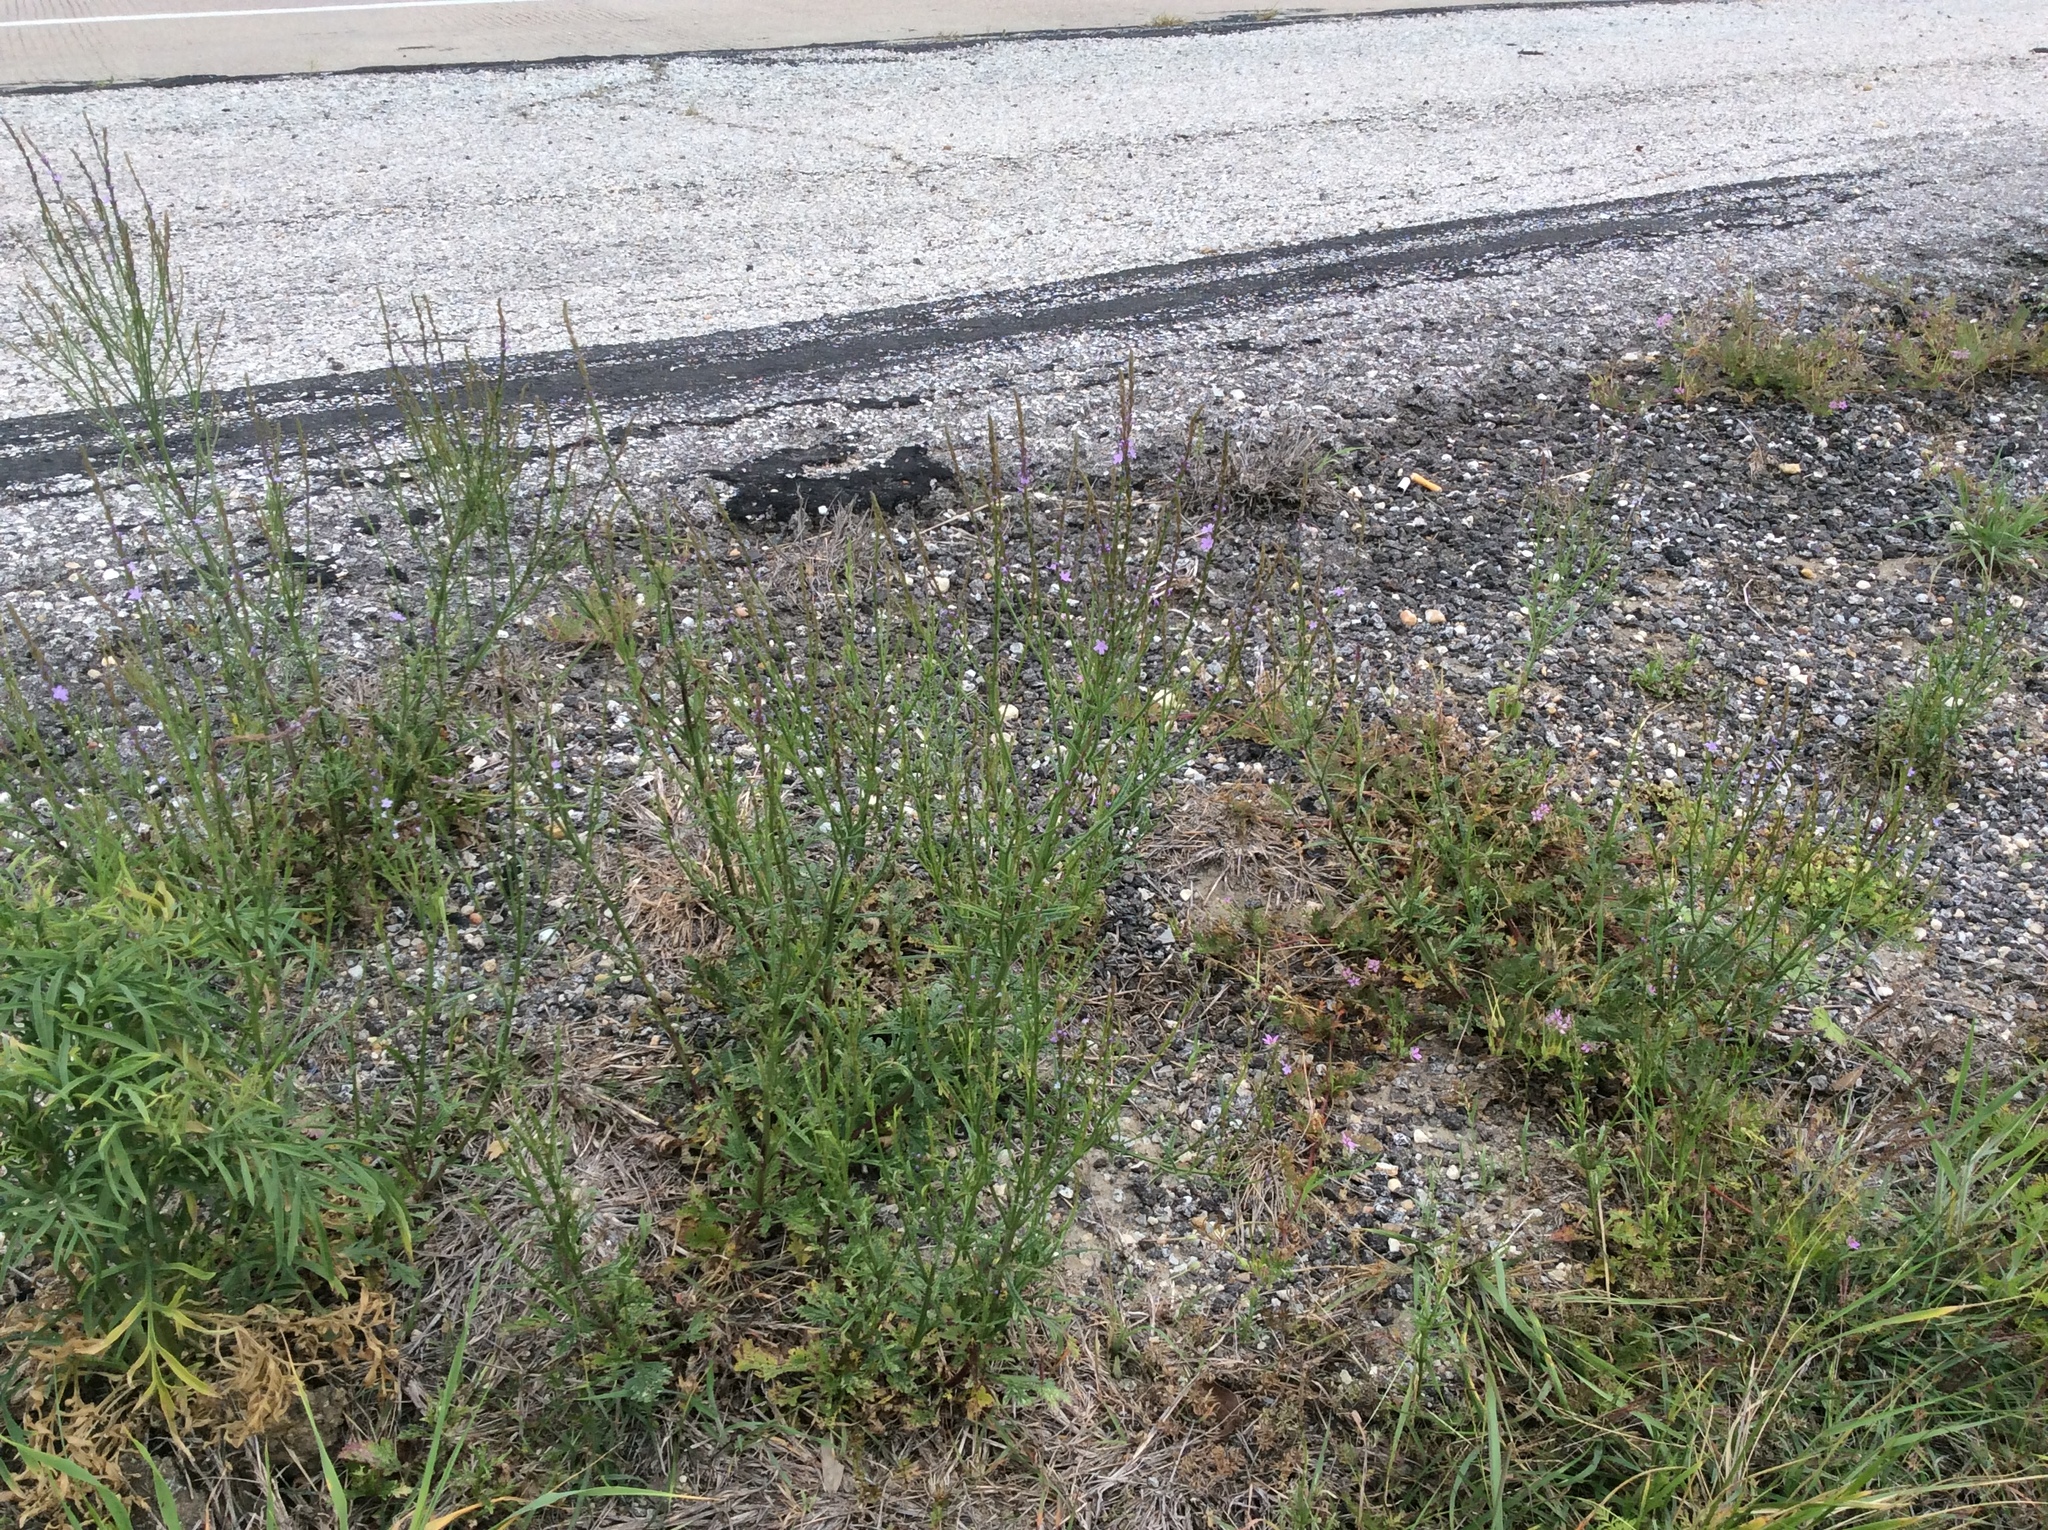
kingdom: Plantae
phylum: Tracheophyta
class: Magnoliopsida
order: Lamiales
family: Verbenaceae
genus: Verbena
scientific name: Verbena halei
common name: Texas vervain
